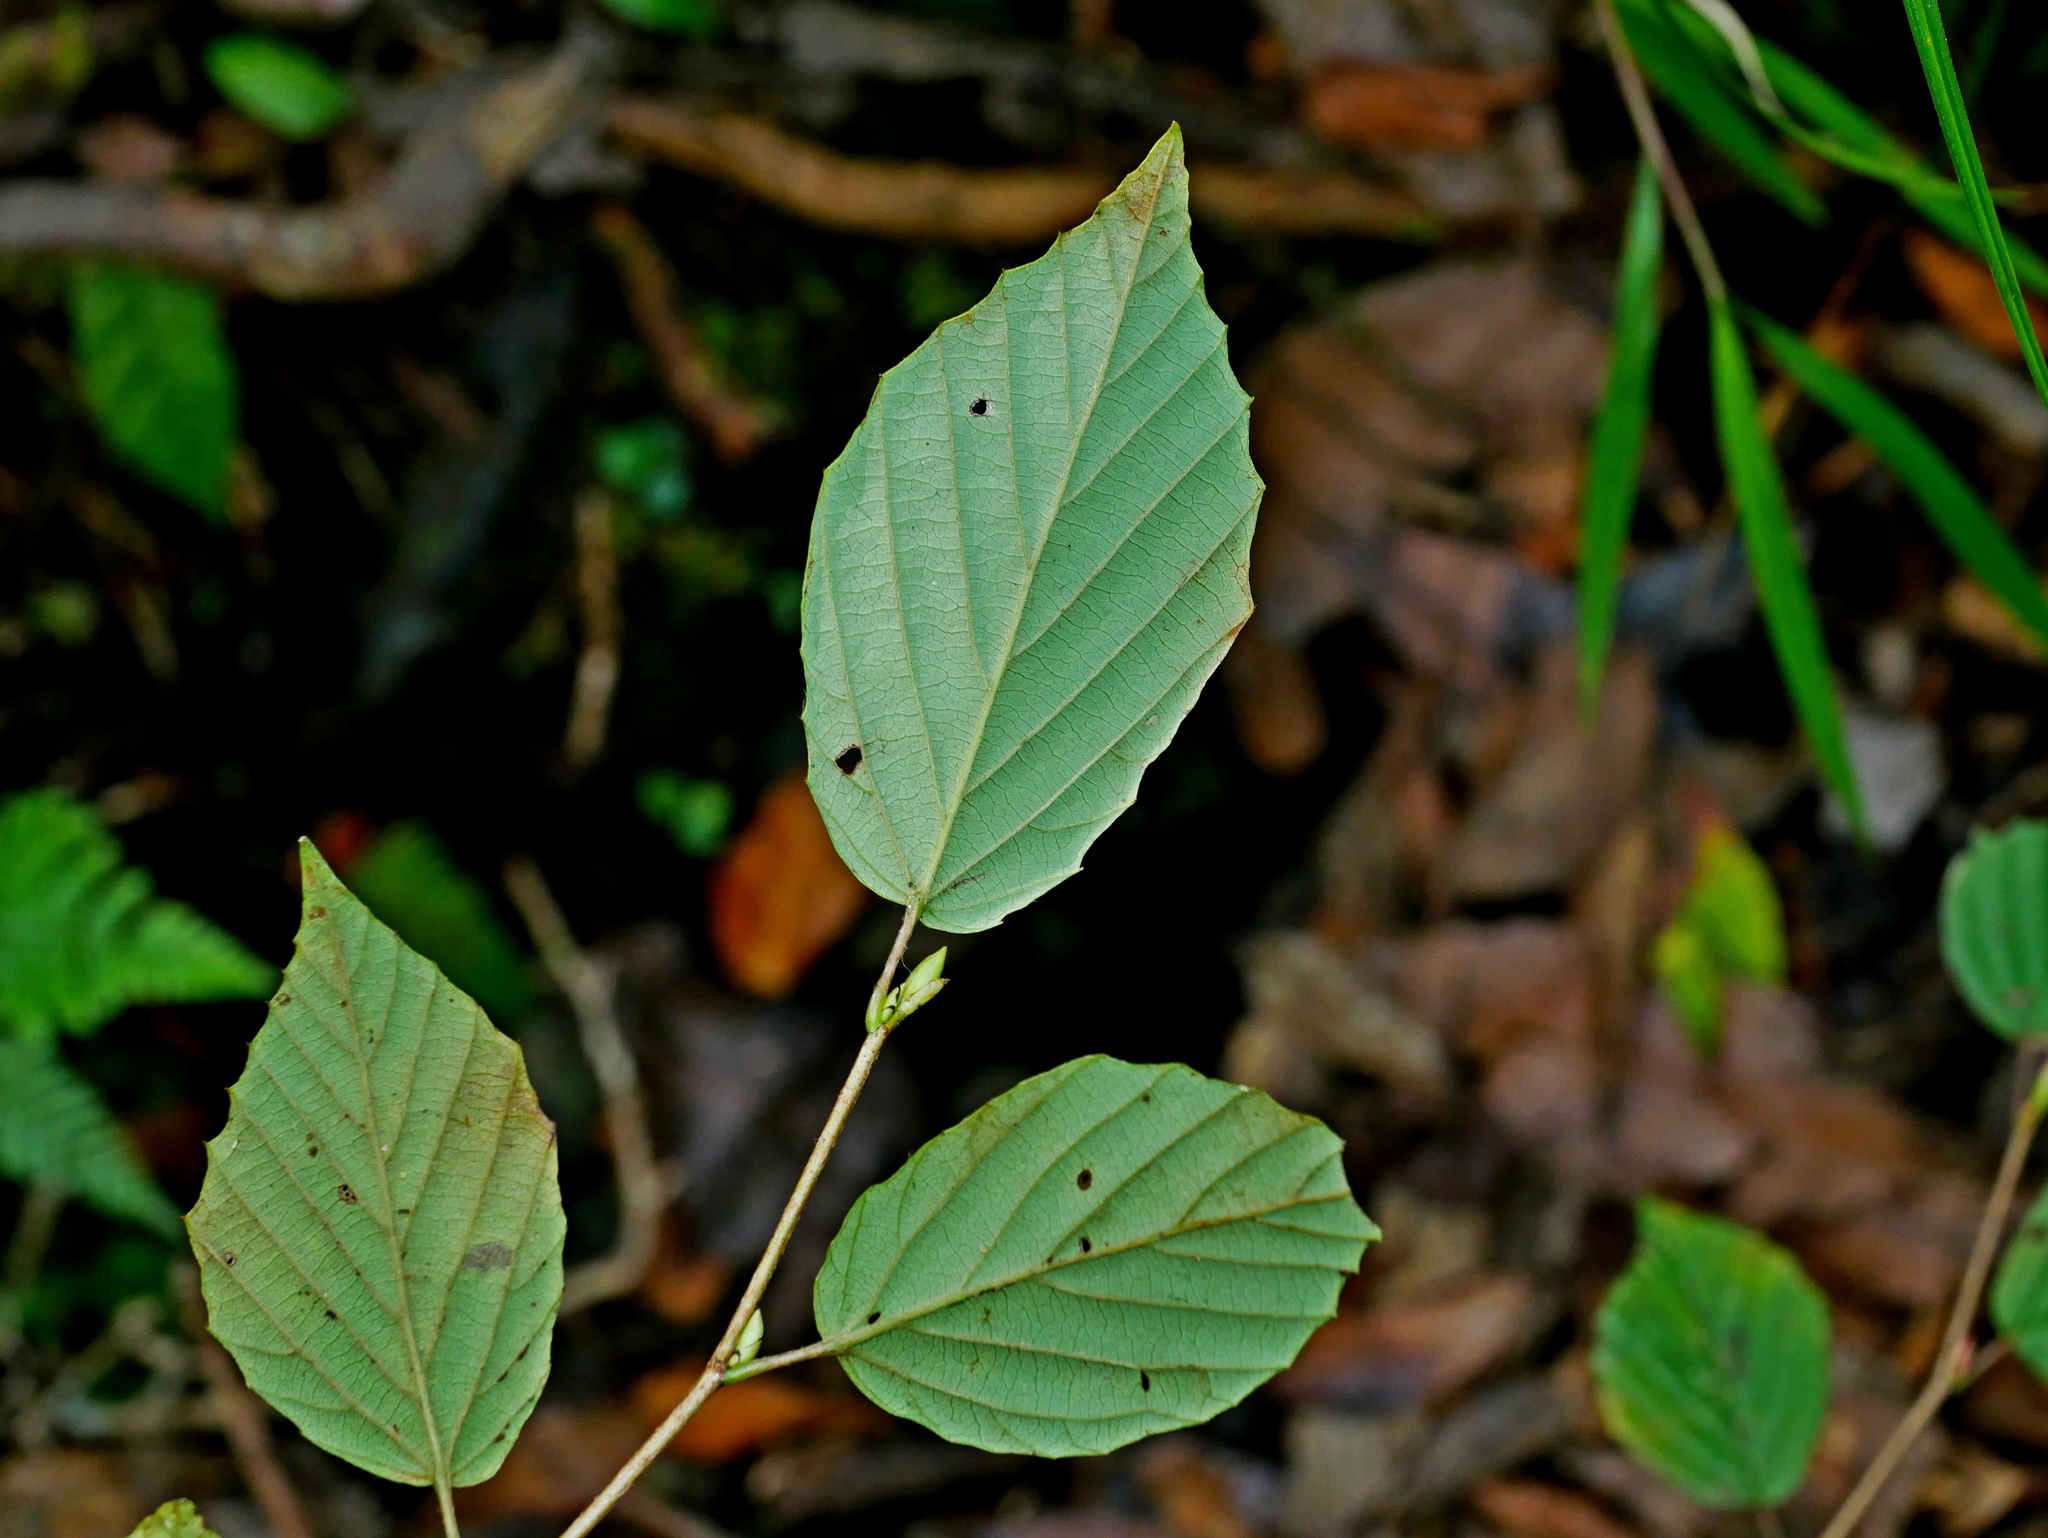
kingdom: Plantae
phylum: Tracheophyta
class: Magnoliopsida
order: Saxifragales
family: Hamamelidaceae
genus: Corylopsis
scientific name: Corylopsis pauciflora
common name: Buttercup winter-hazel
